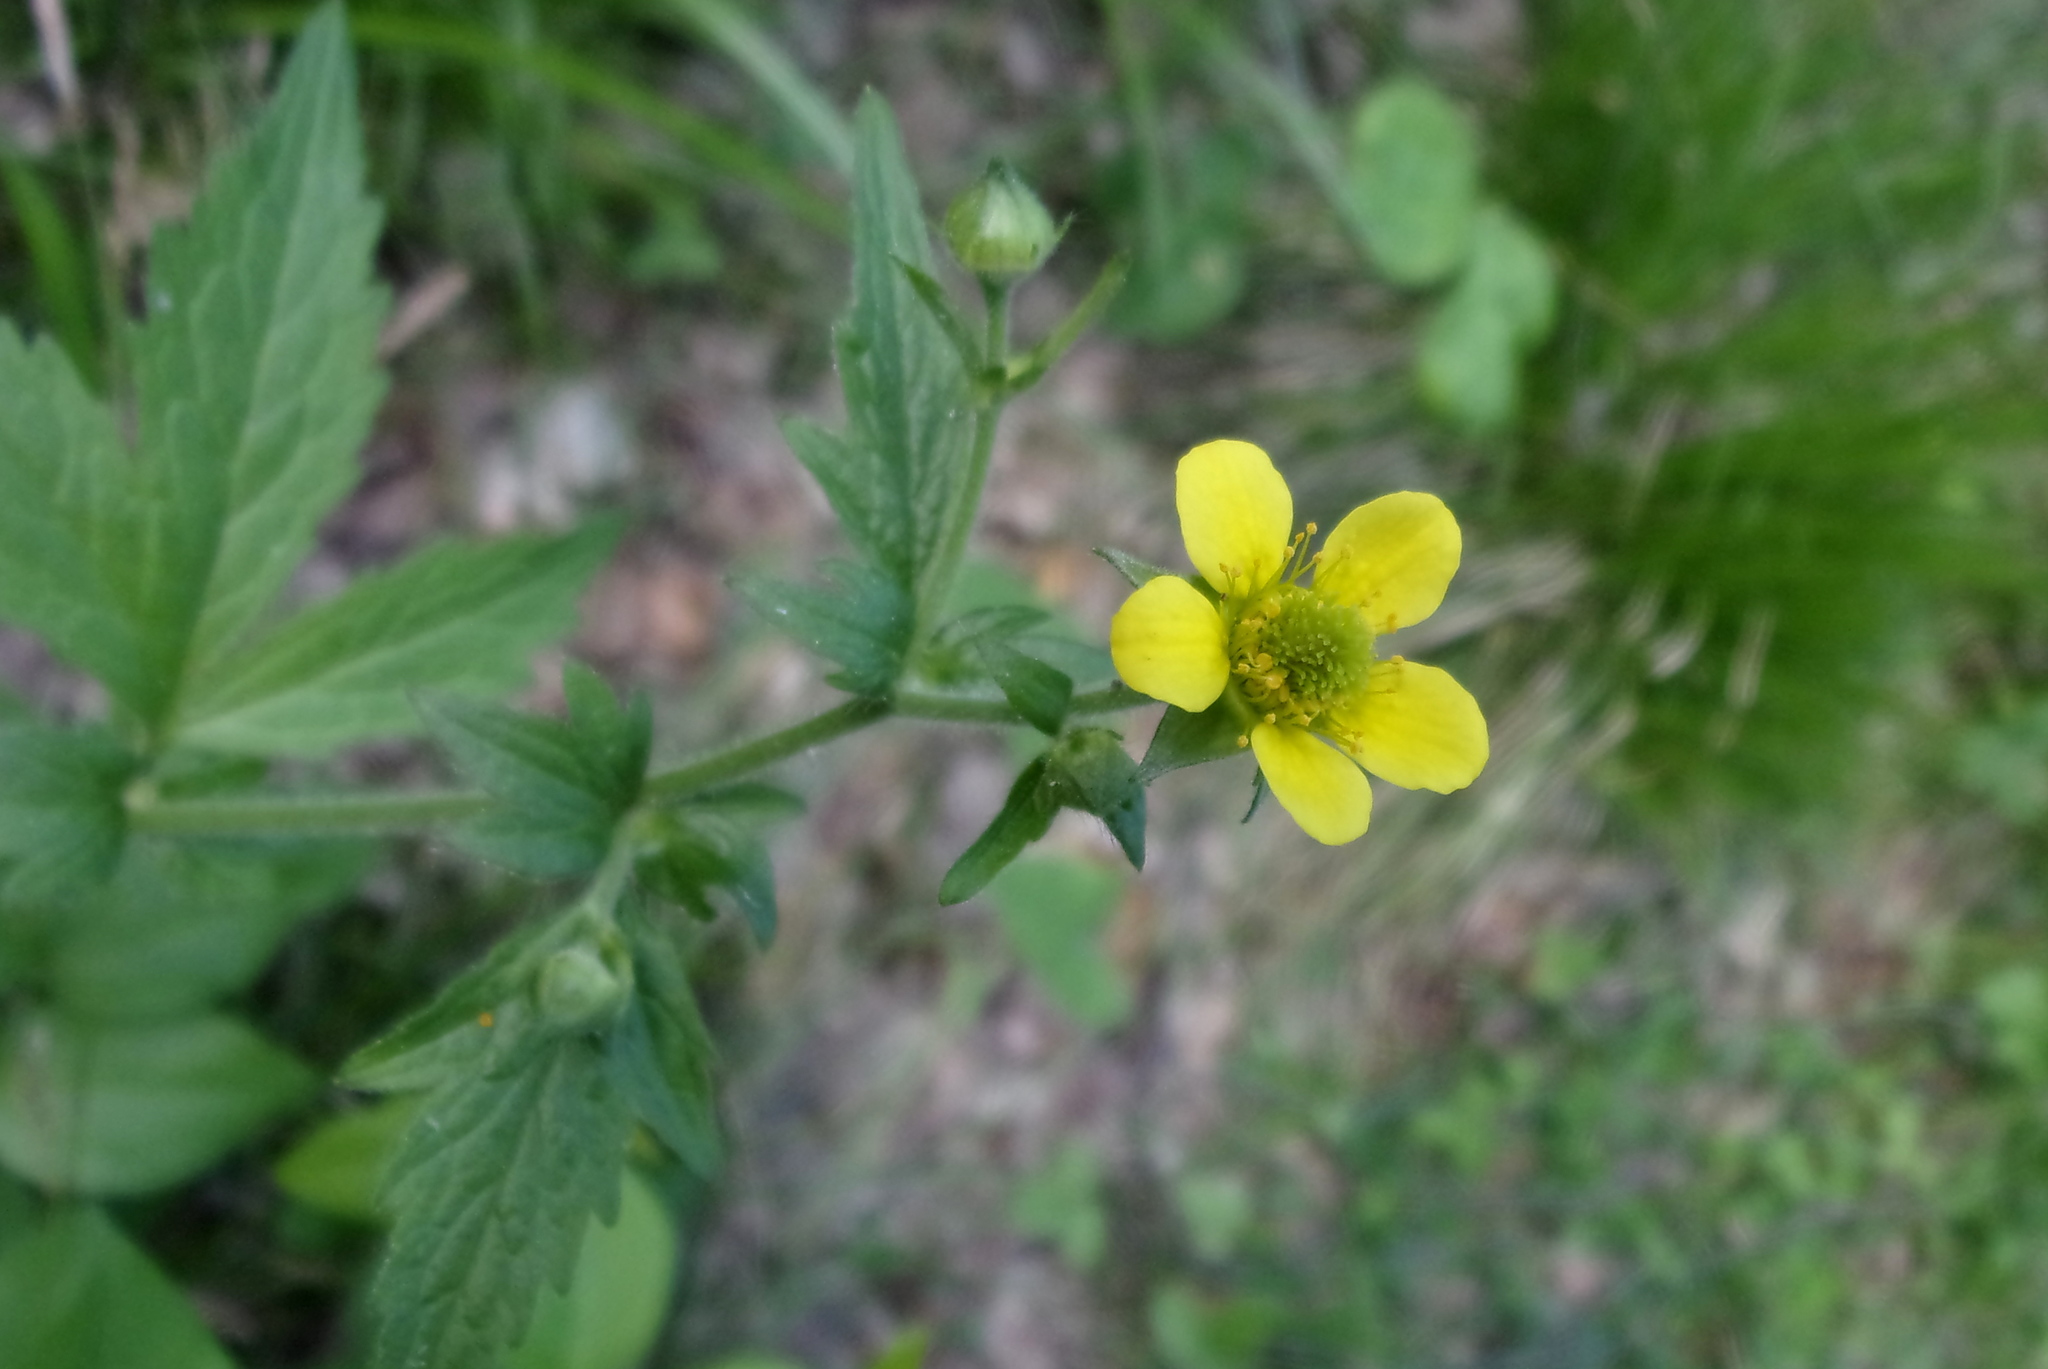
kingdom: Plantae
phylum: Tracheophyta
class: Magnoliopsida
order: Rosales
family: Rosaceae
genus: Geum
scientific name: Geum aleppicum
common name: Yellow avens
